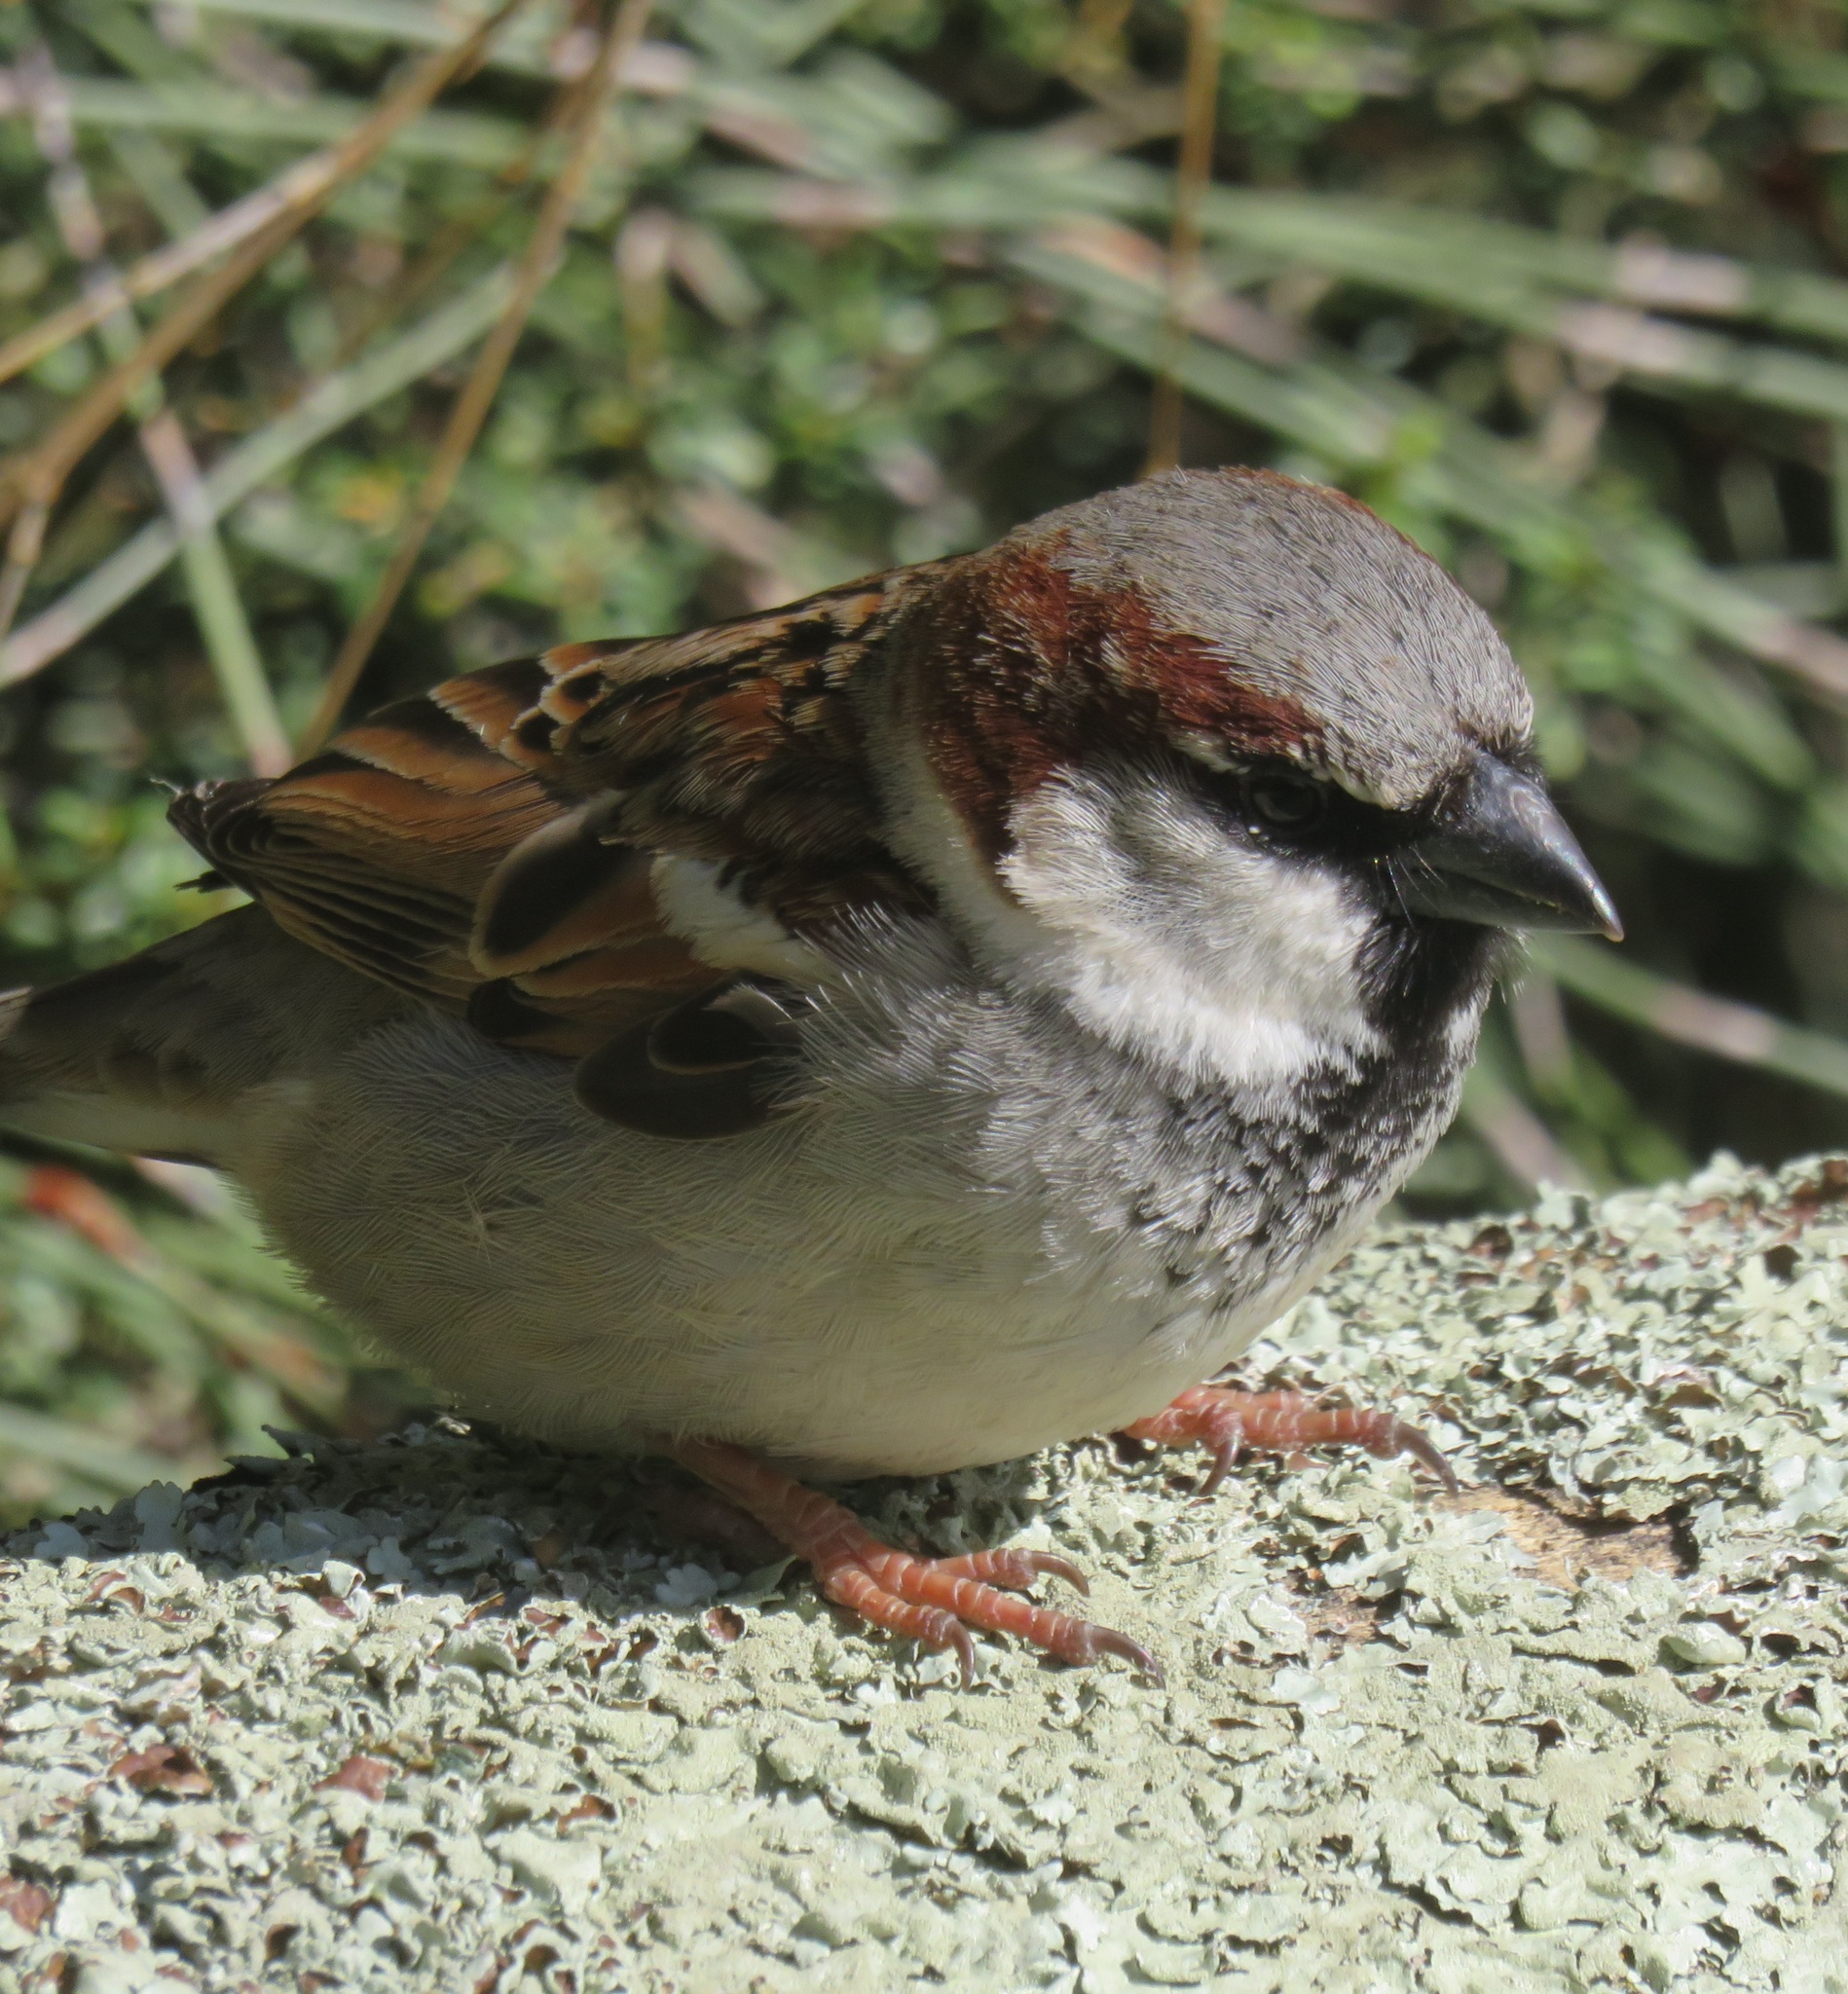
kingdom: Animalia
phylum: Chordata
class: Aves
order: Passeriformes
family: Passeridae
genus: Passer
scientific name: Passer domesticus
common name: House sparrow
